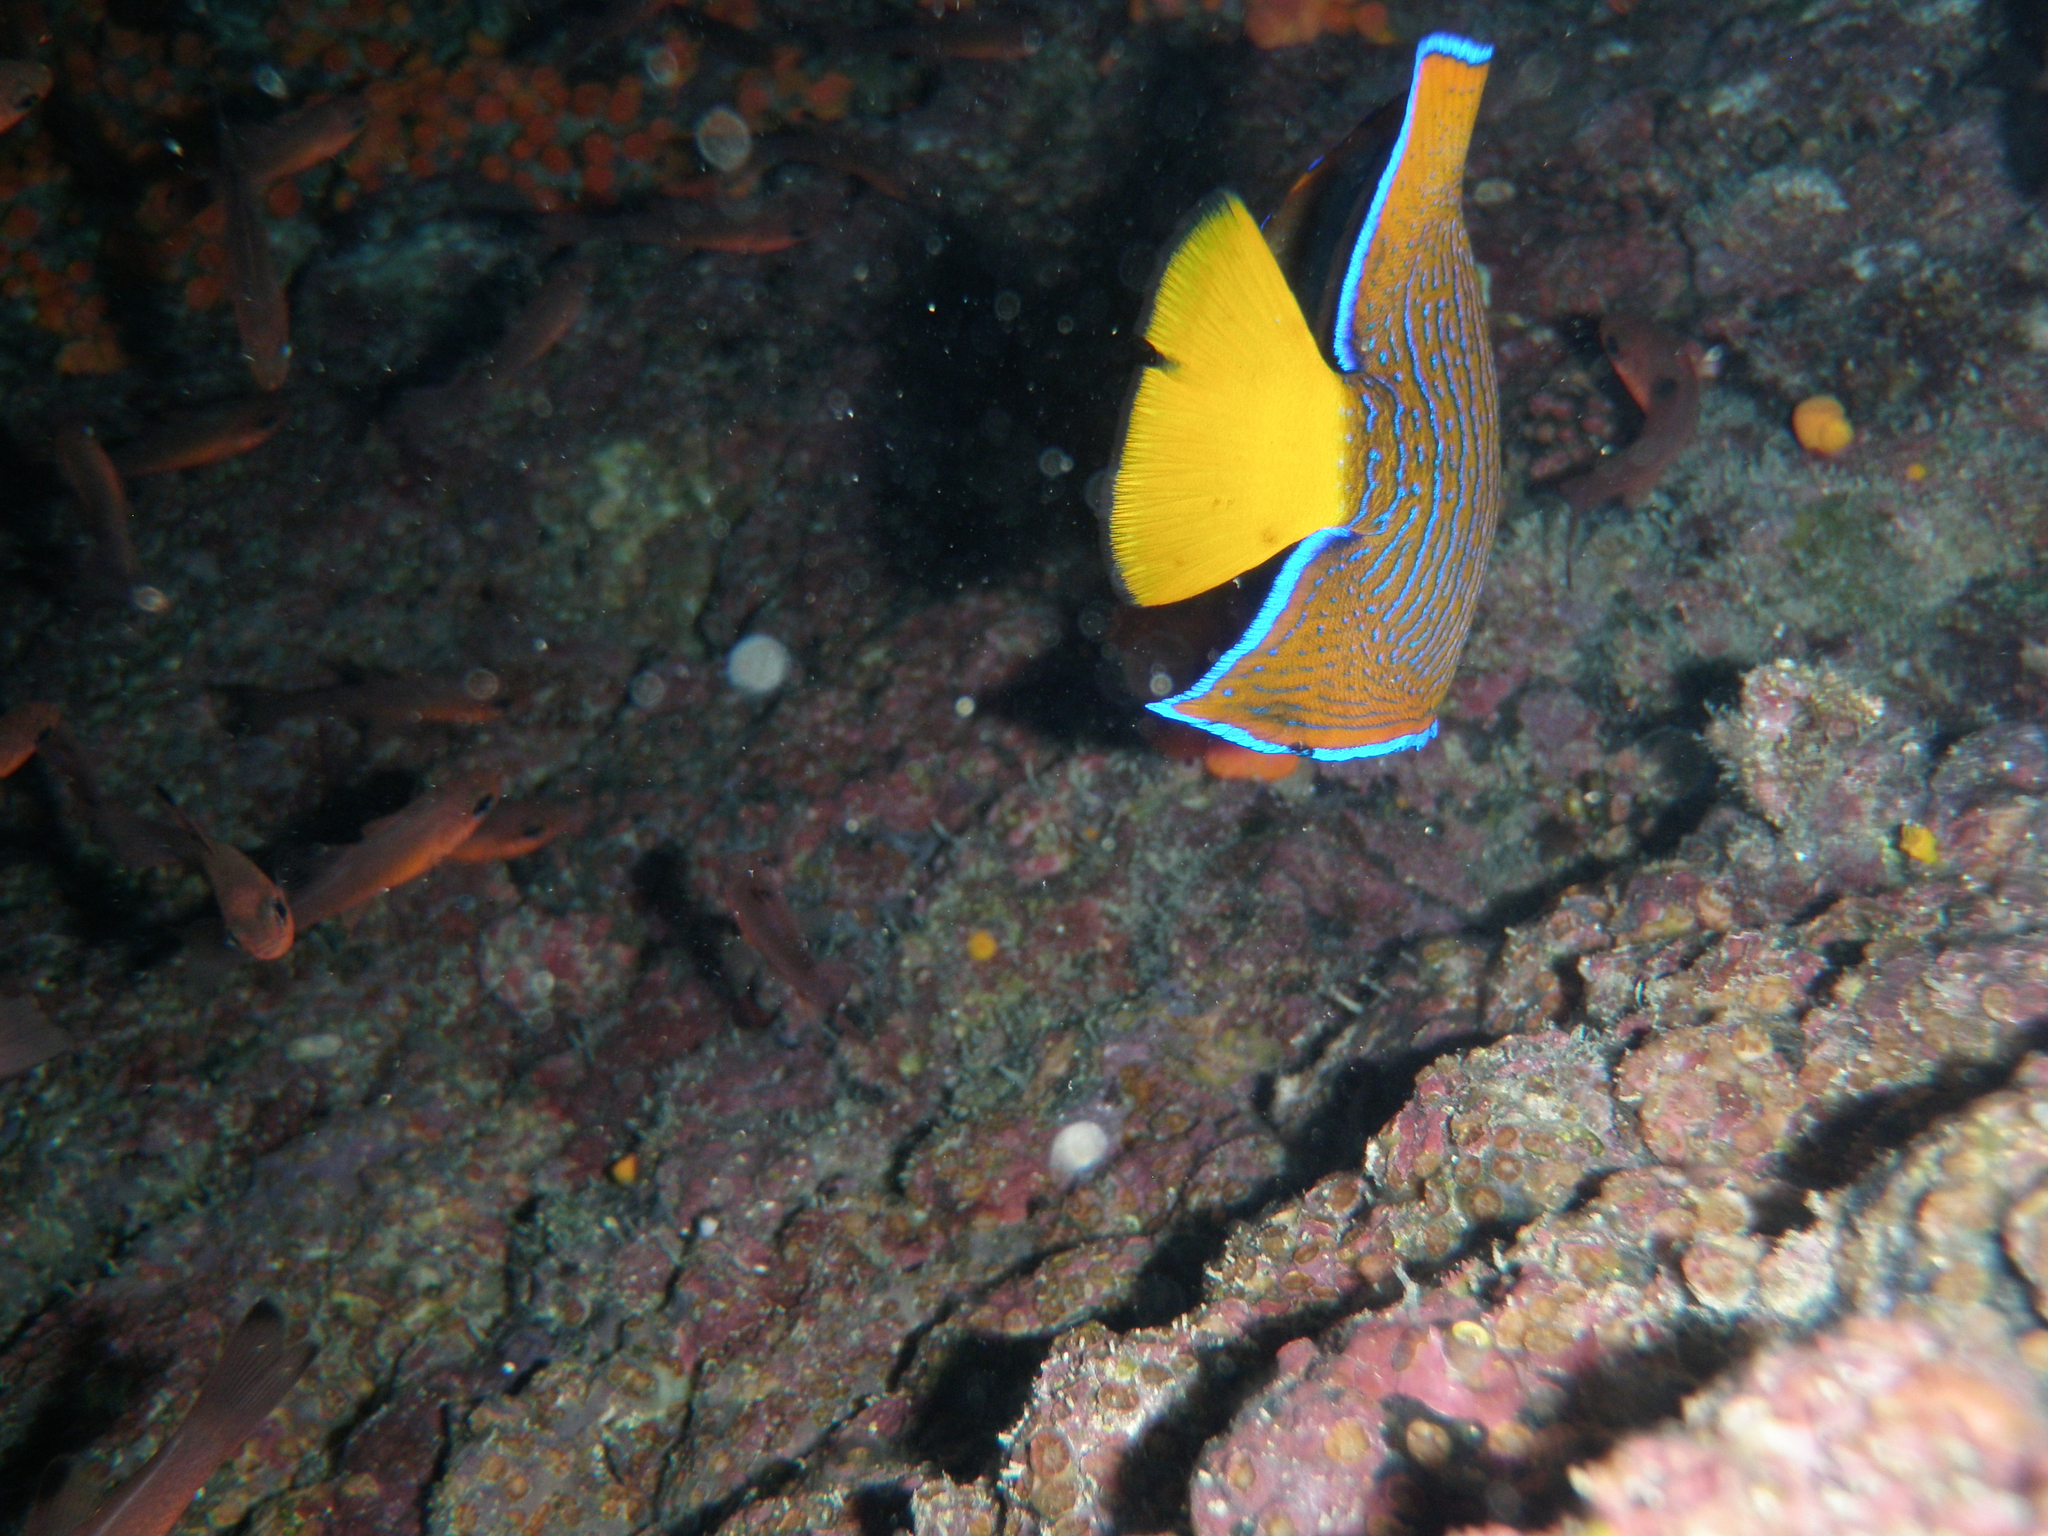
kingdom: Animalia
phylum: Chordata
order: Perciformes
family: Pomacanthidae
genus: Holacanthus
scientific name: Holacanthus passer
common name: King angelfish
